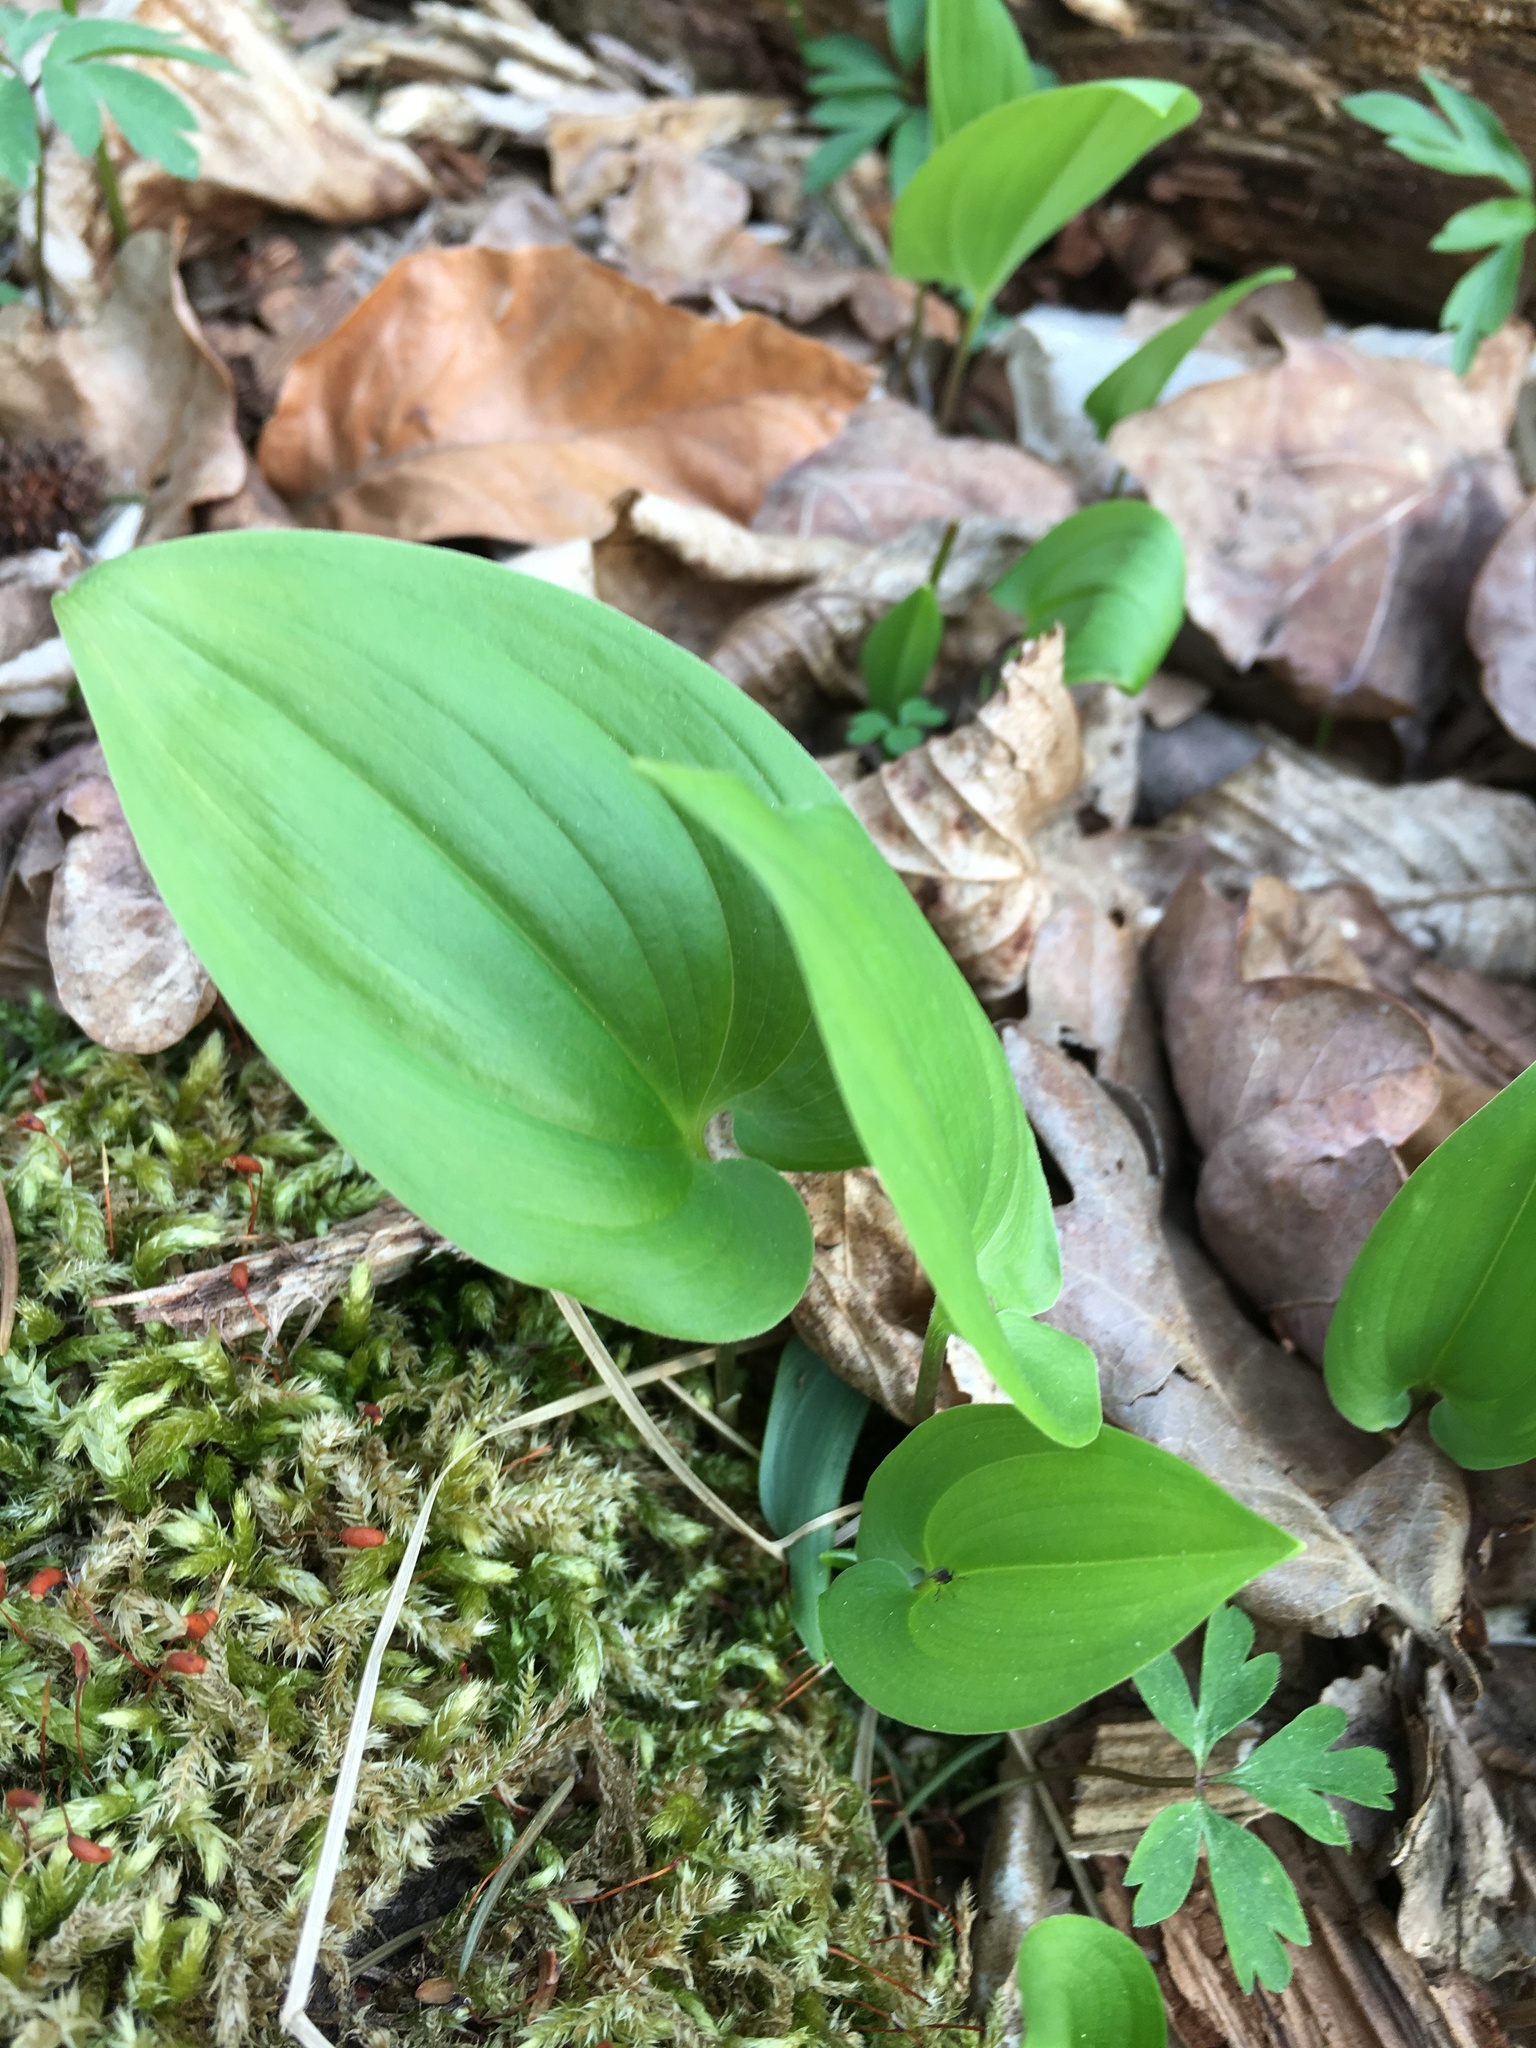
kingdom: Plantae
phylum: Tracheophyta
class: Liliopsida
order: Asparagales
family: Asparagaceae
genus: Maianthemum
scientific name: Maianthemum bifolium
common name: May lily
